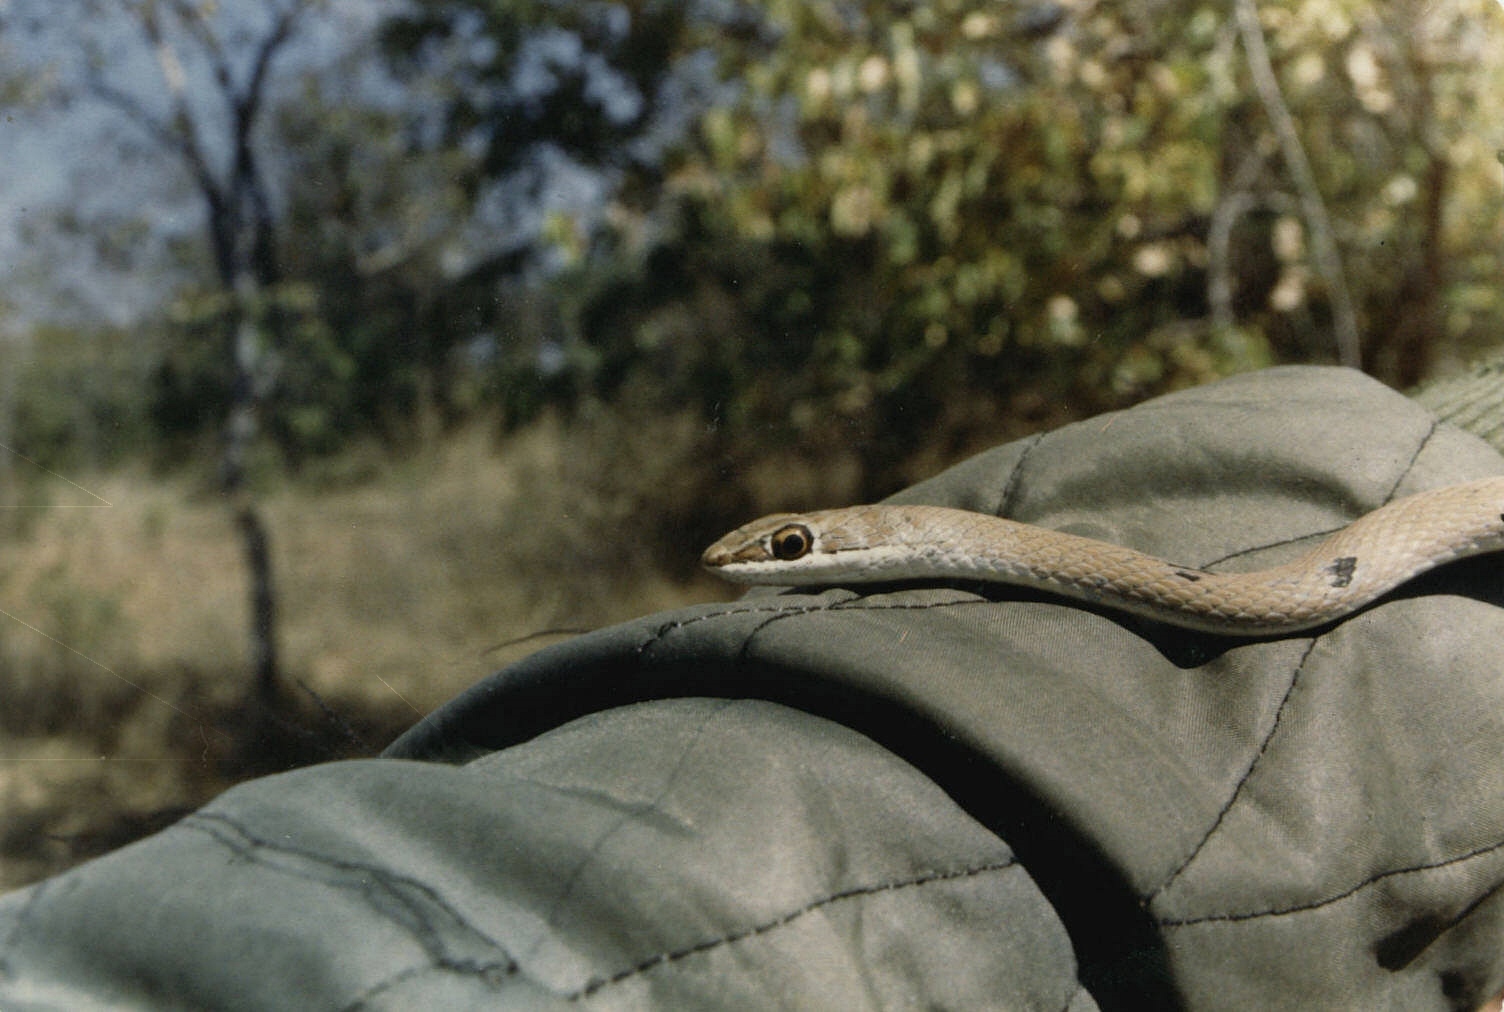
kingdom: Animalia
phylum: Chordata
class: Squamata
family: Psammophiidae
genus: Psammophis
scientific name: Psammophis subtaeniatus
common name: Stripe-bellied sand snake
